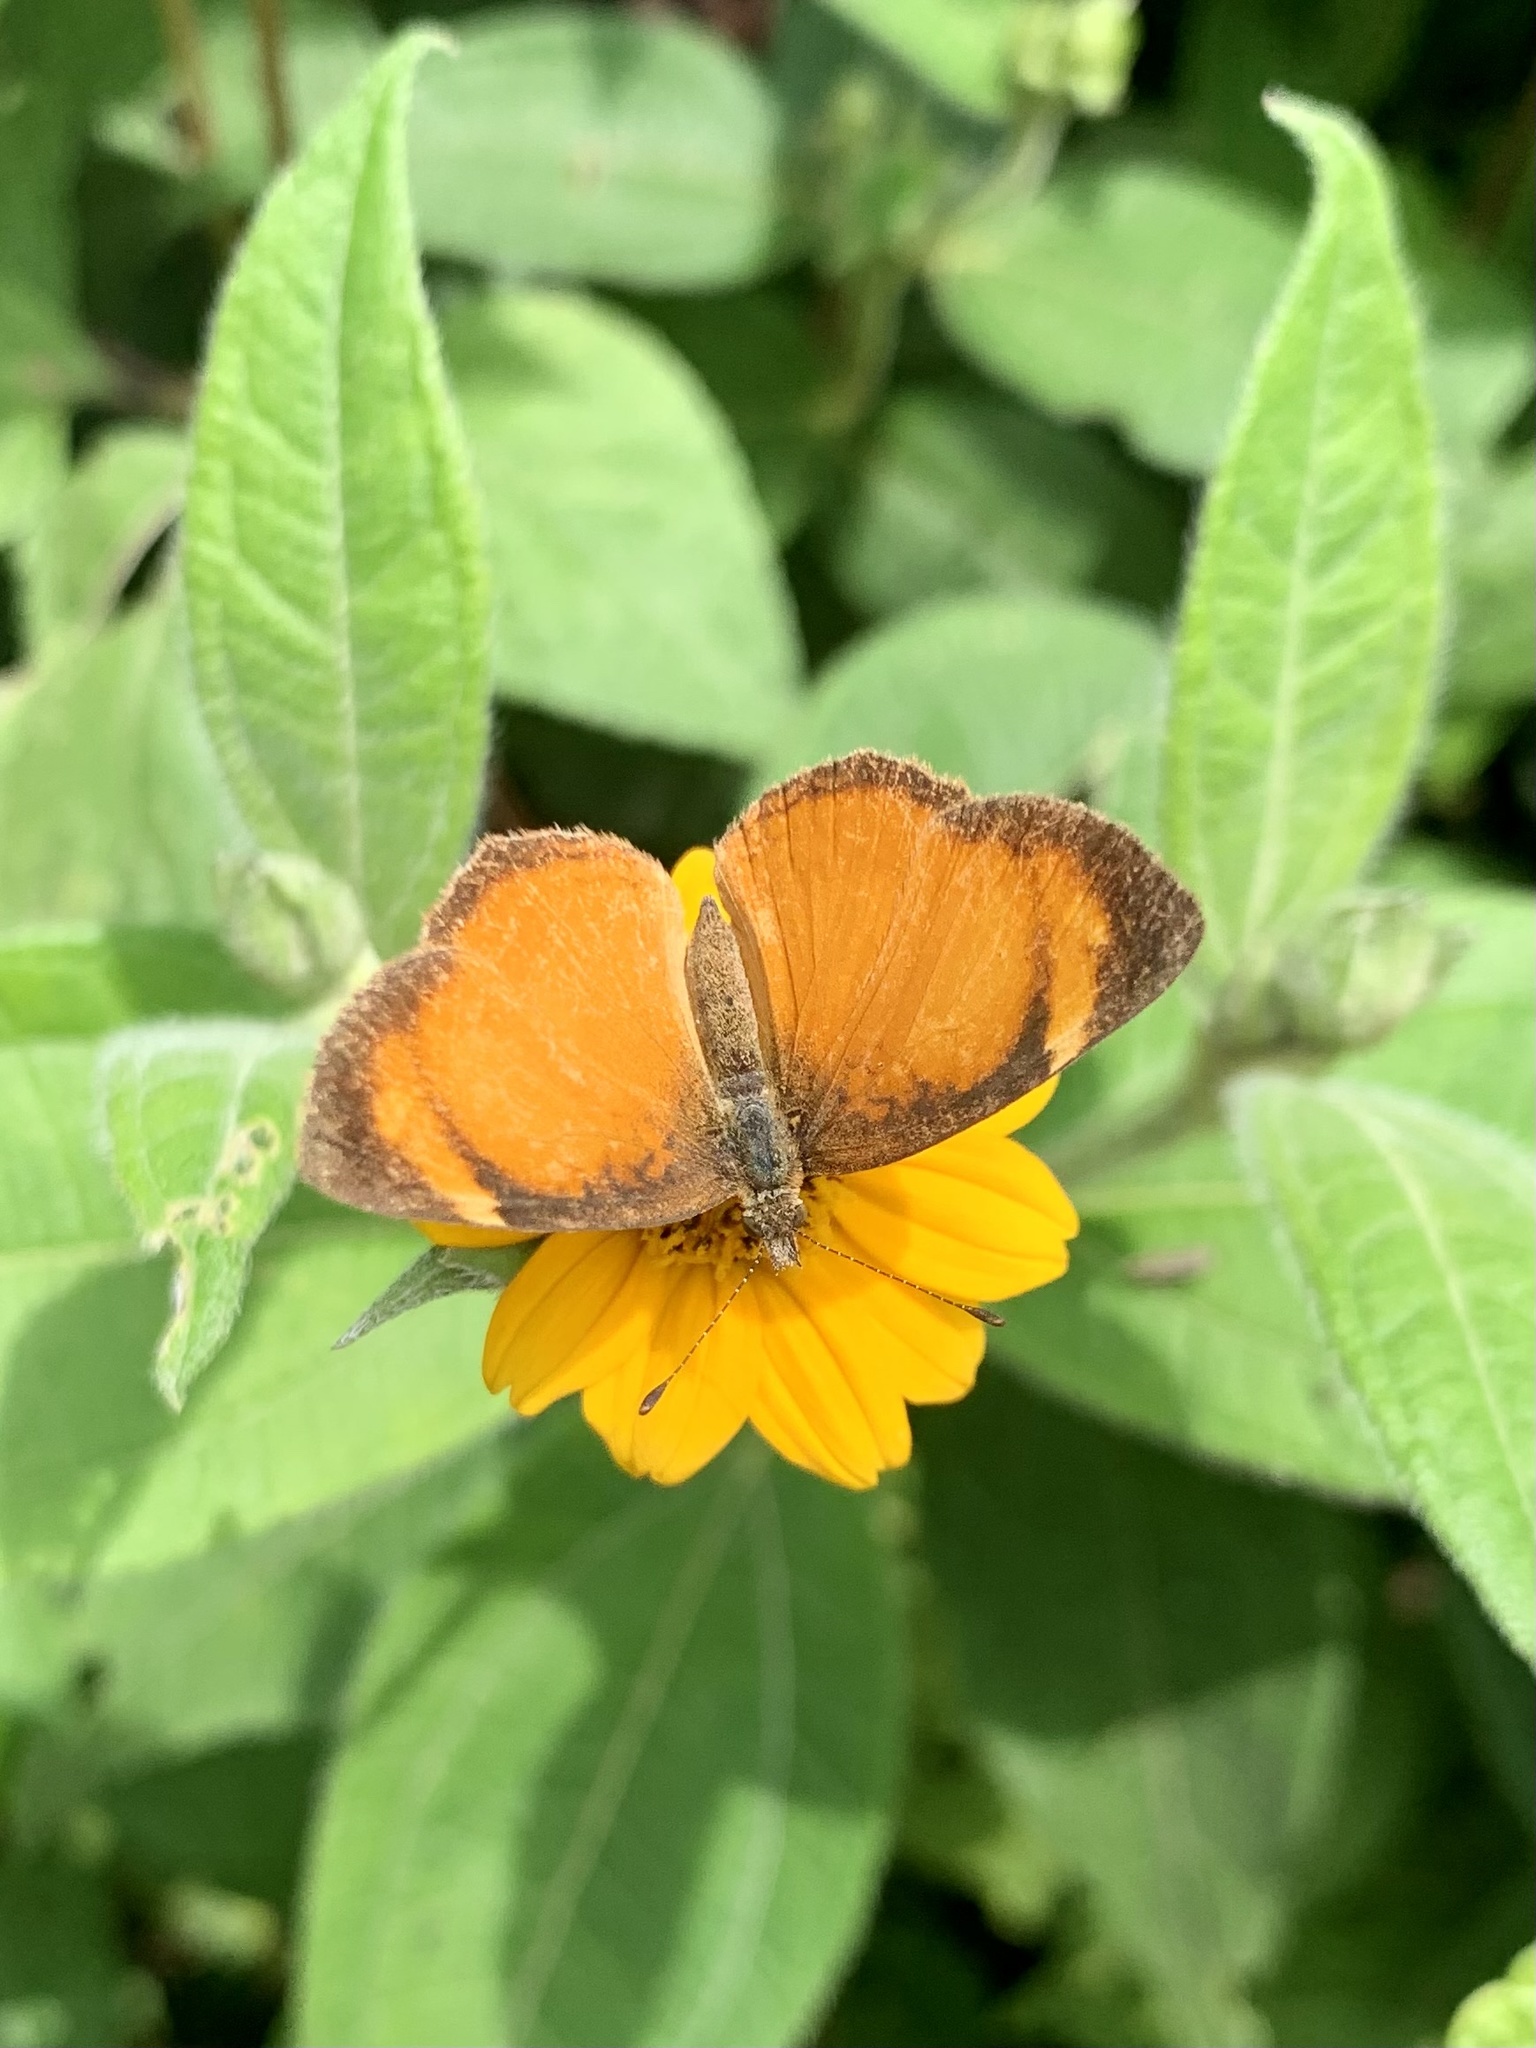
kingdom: Animalia
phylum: Arthropoda
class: Insecta
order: Lepidoptera
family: Nymphalidae
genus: Tegosa
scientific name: Tegosa anieta
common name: Black-bordered crescent
